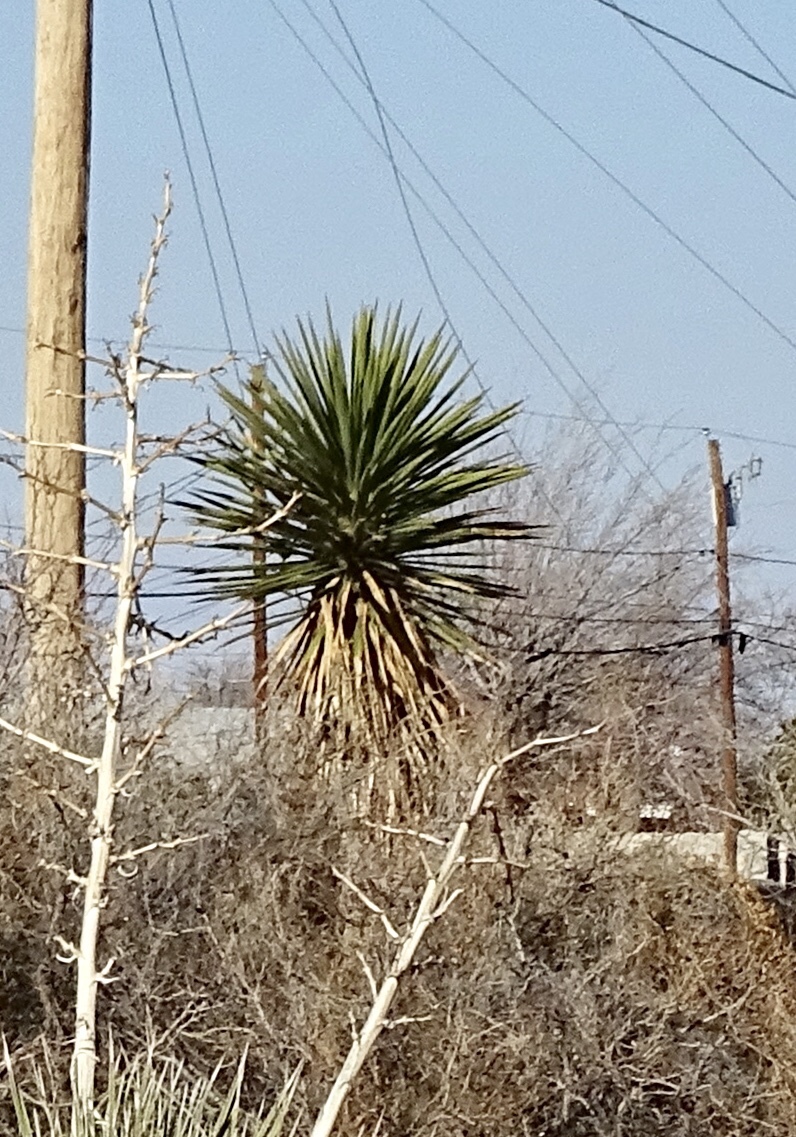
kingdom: Plantae
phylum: Tracheophyta
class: Liliopsida
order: Asparagales
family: Asparagaceae
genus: Yucca
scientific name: Yucca treculiana
